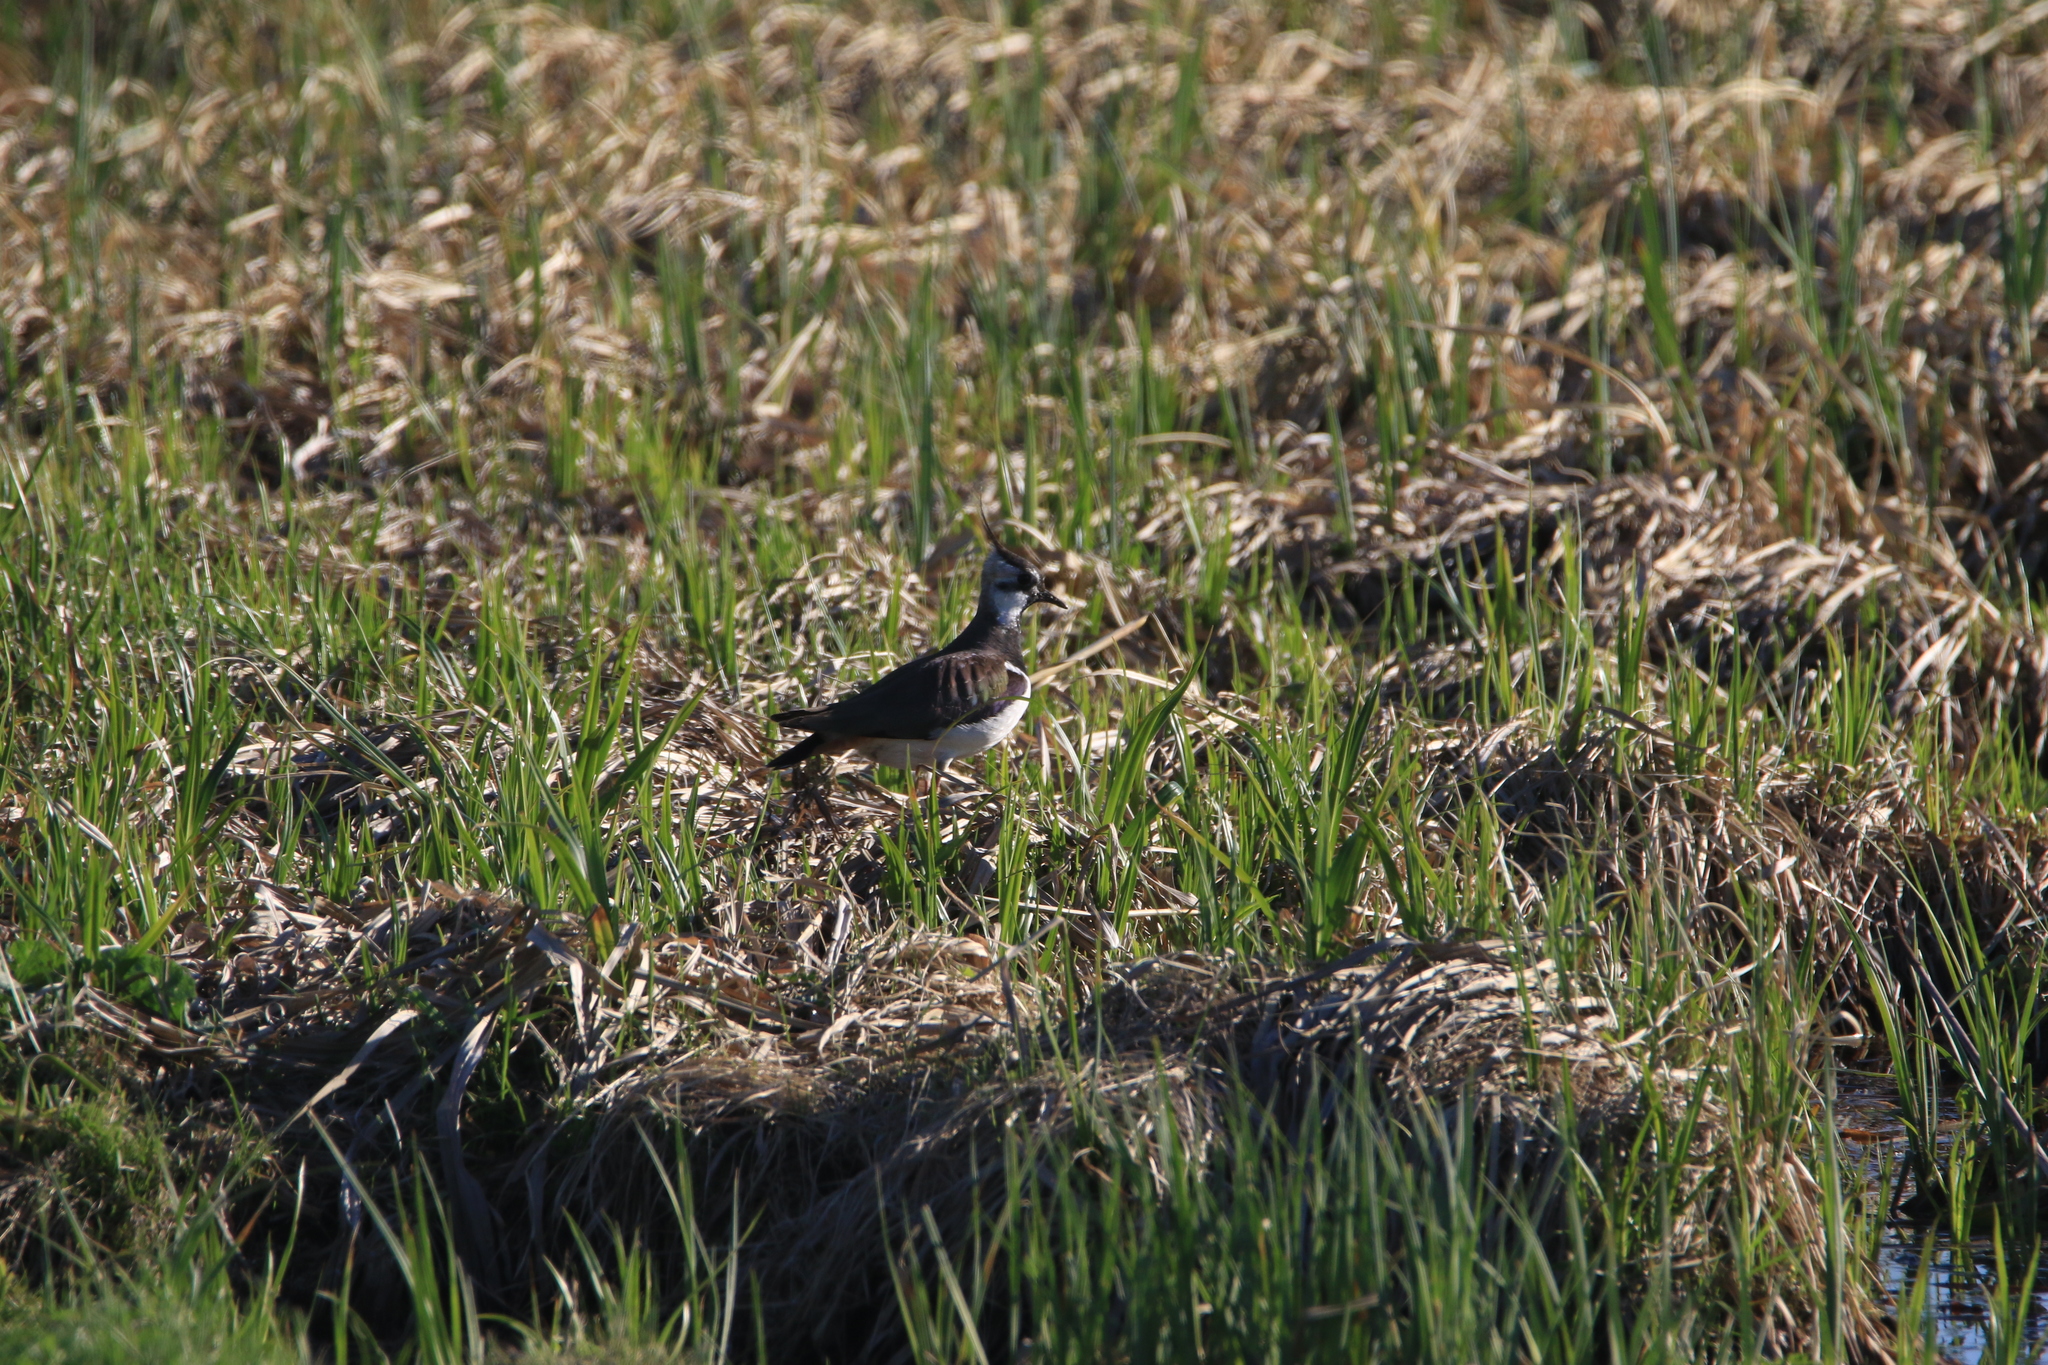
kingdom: Animalia
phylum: Chordata
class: Aves
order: Charadriiformes
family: Charadriidae
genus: Vanellus
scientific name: Vanellus vanellus
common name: Northern lapwing
